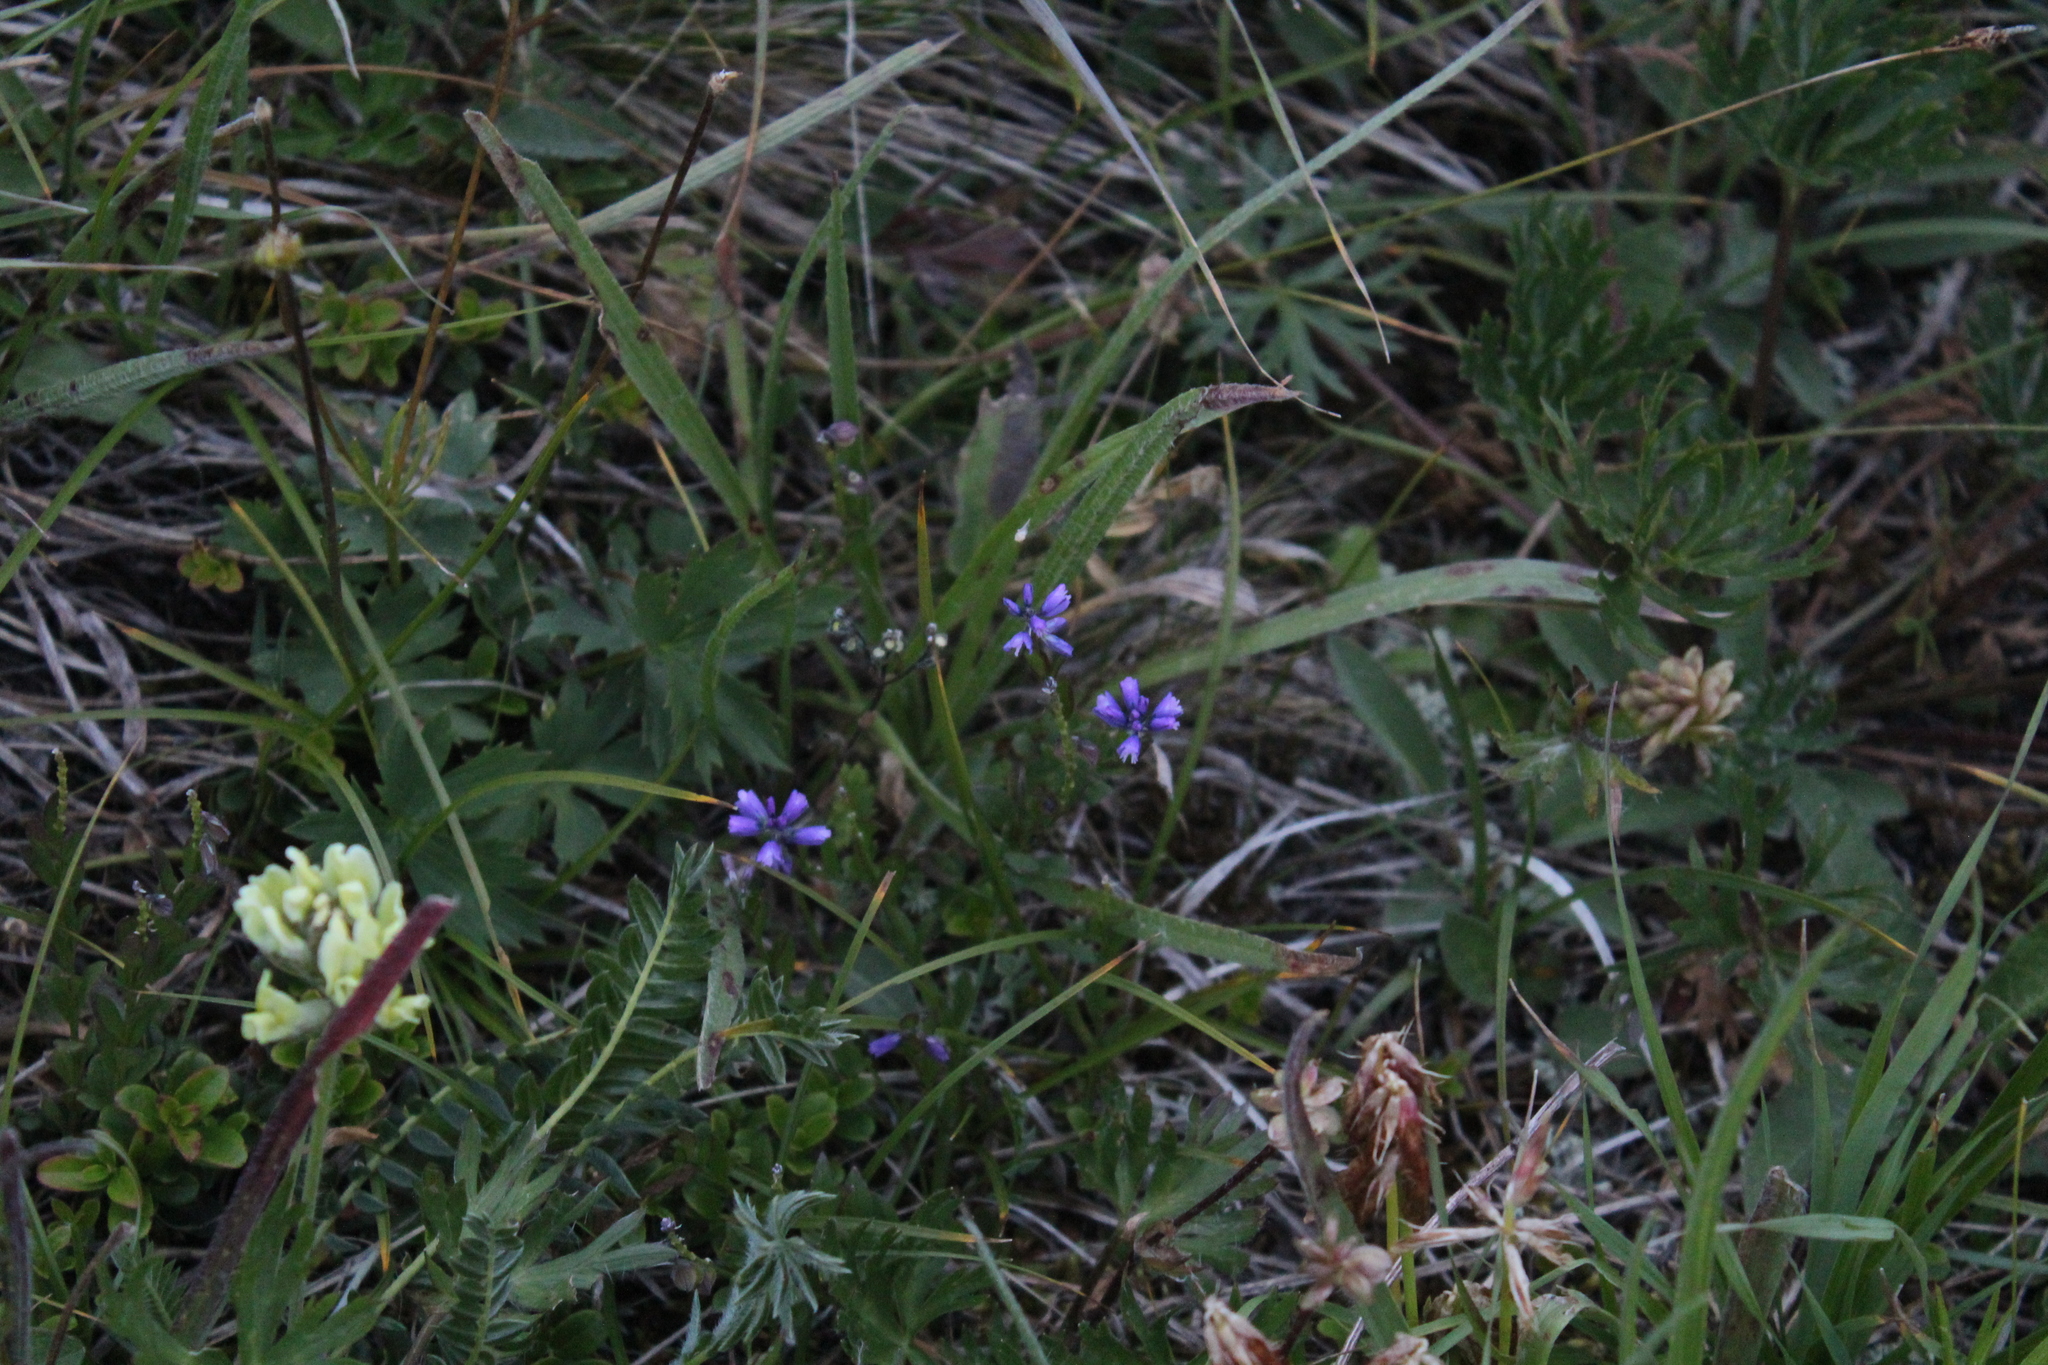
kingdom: Plantae
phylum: Tracheophyta
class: Magnoliopsida
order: Fabales
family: Polygalaceae
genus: Polygala
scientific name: Polygala alpicola
